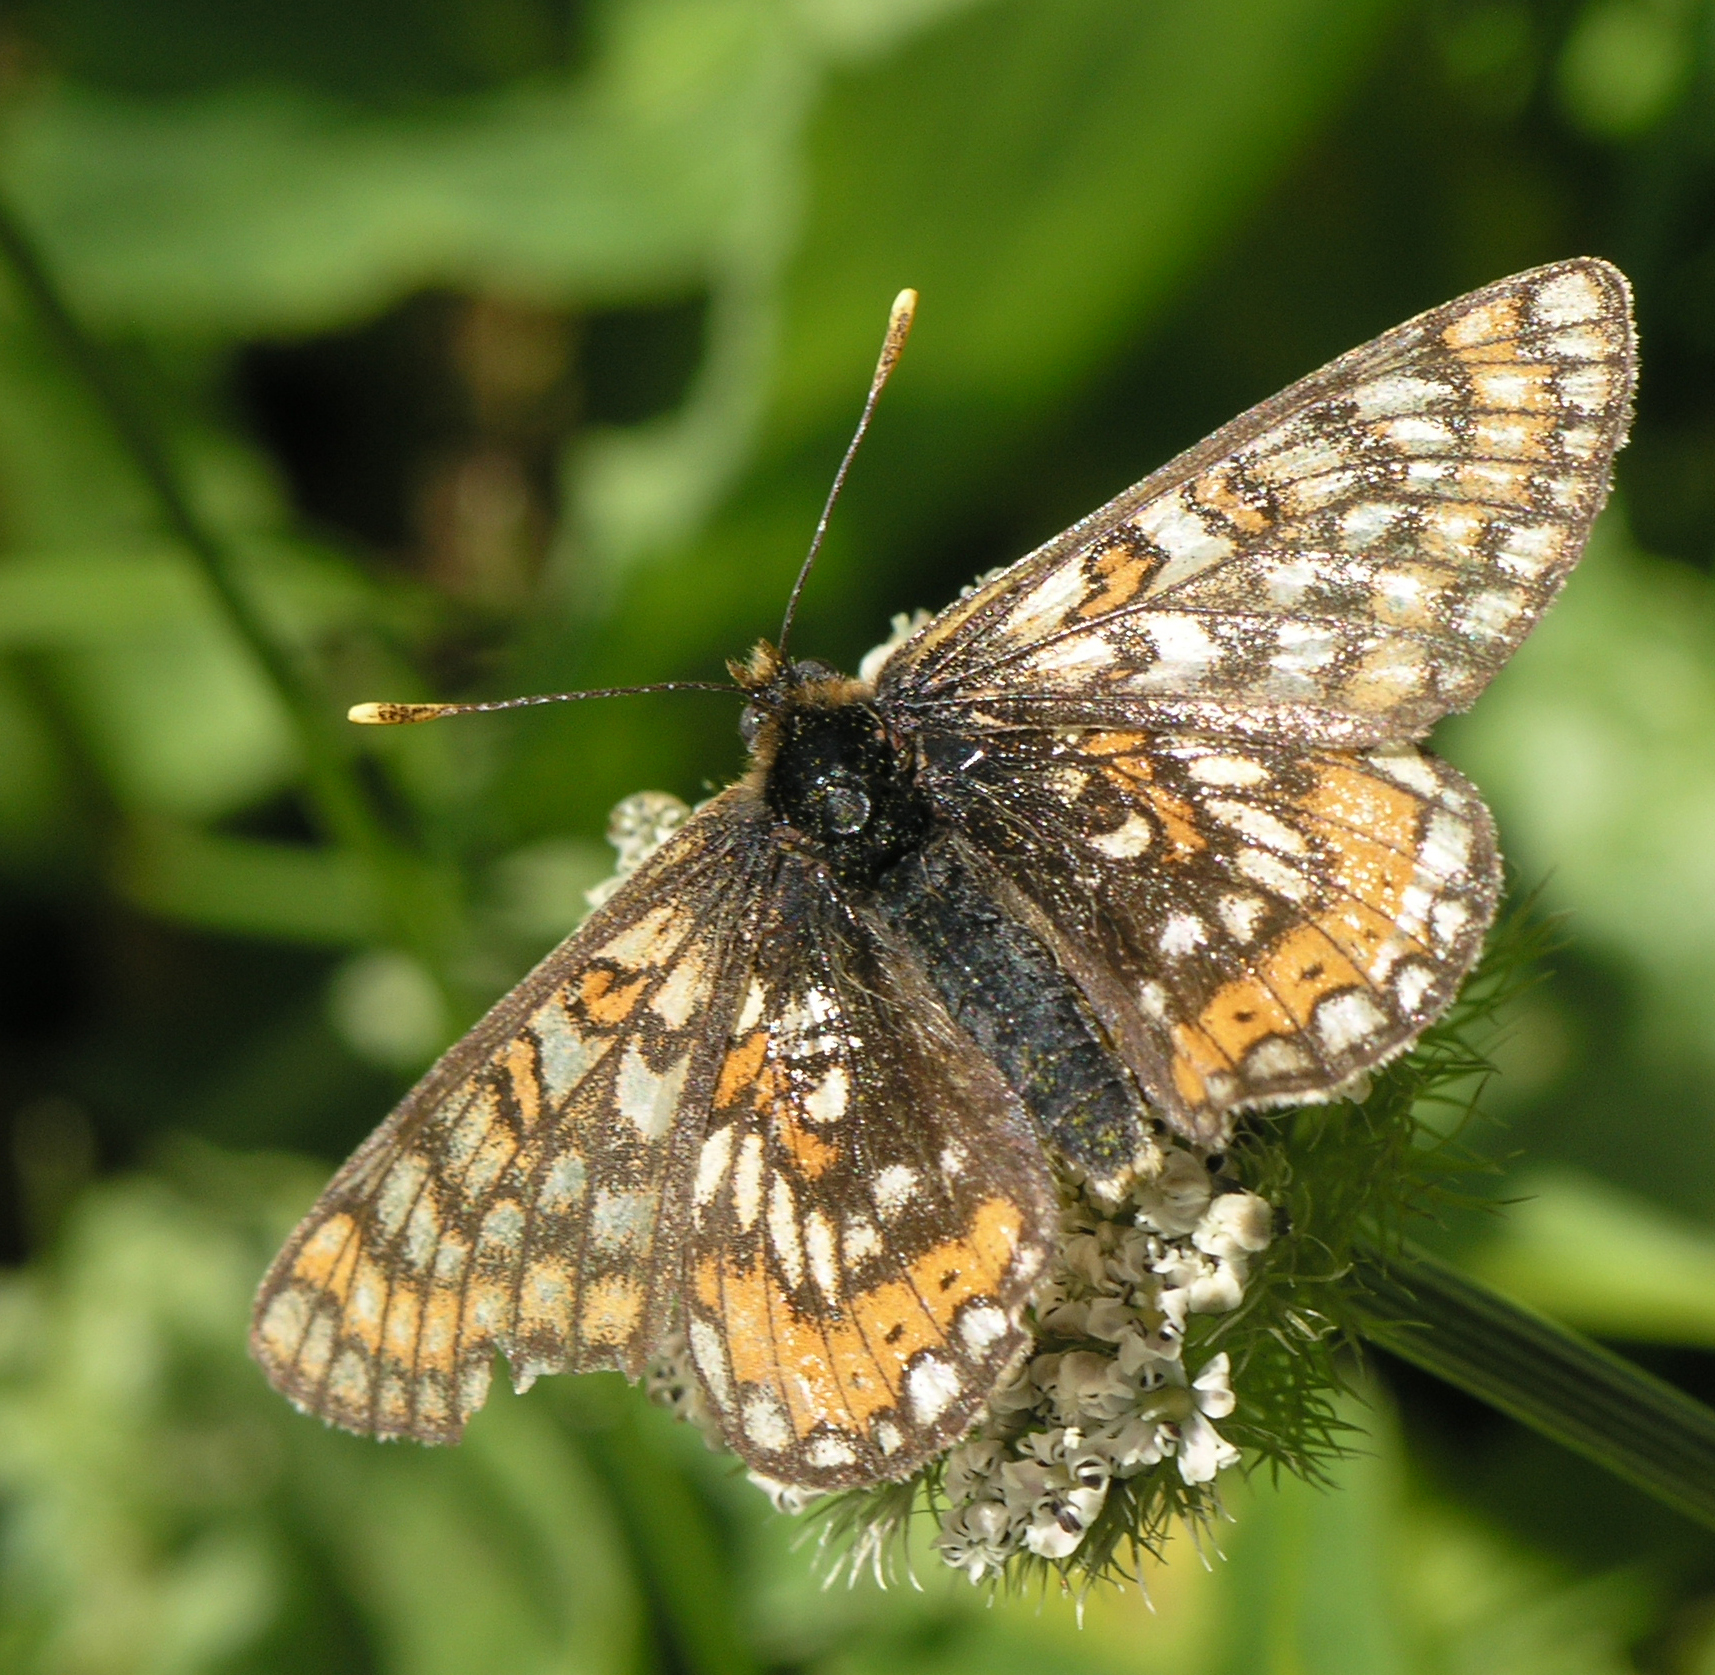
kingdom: Animalia
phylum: Arthropoda
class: Insecta
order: Lepidoptera
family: Nymphalidae
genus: Euphydryas
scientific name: Euphydryas aurinia
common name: Marsh fritillary
